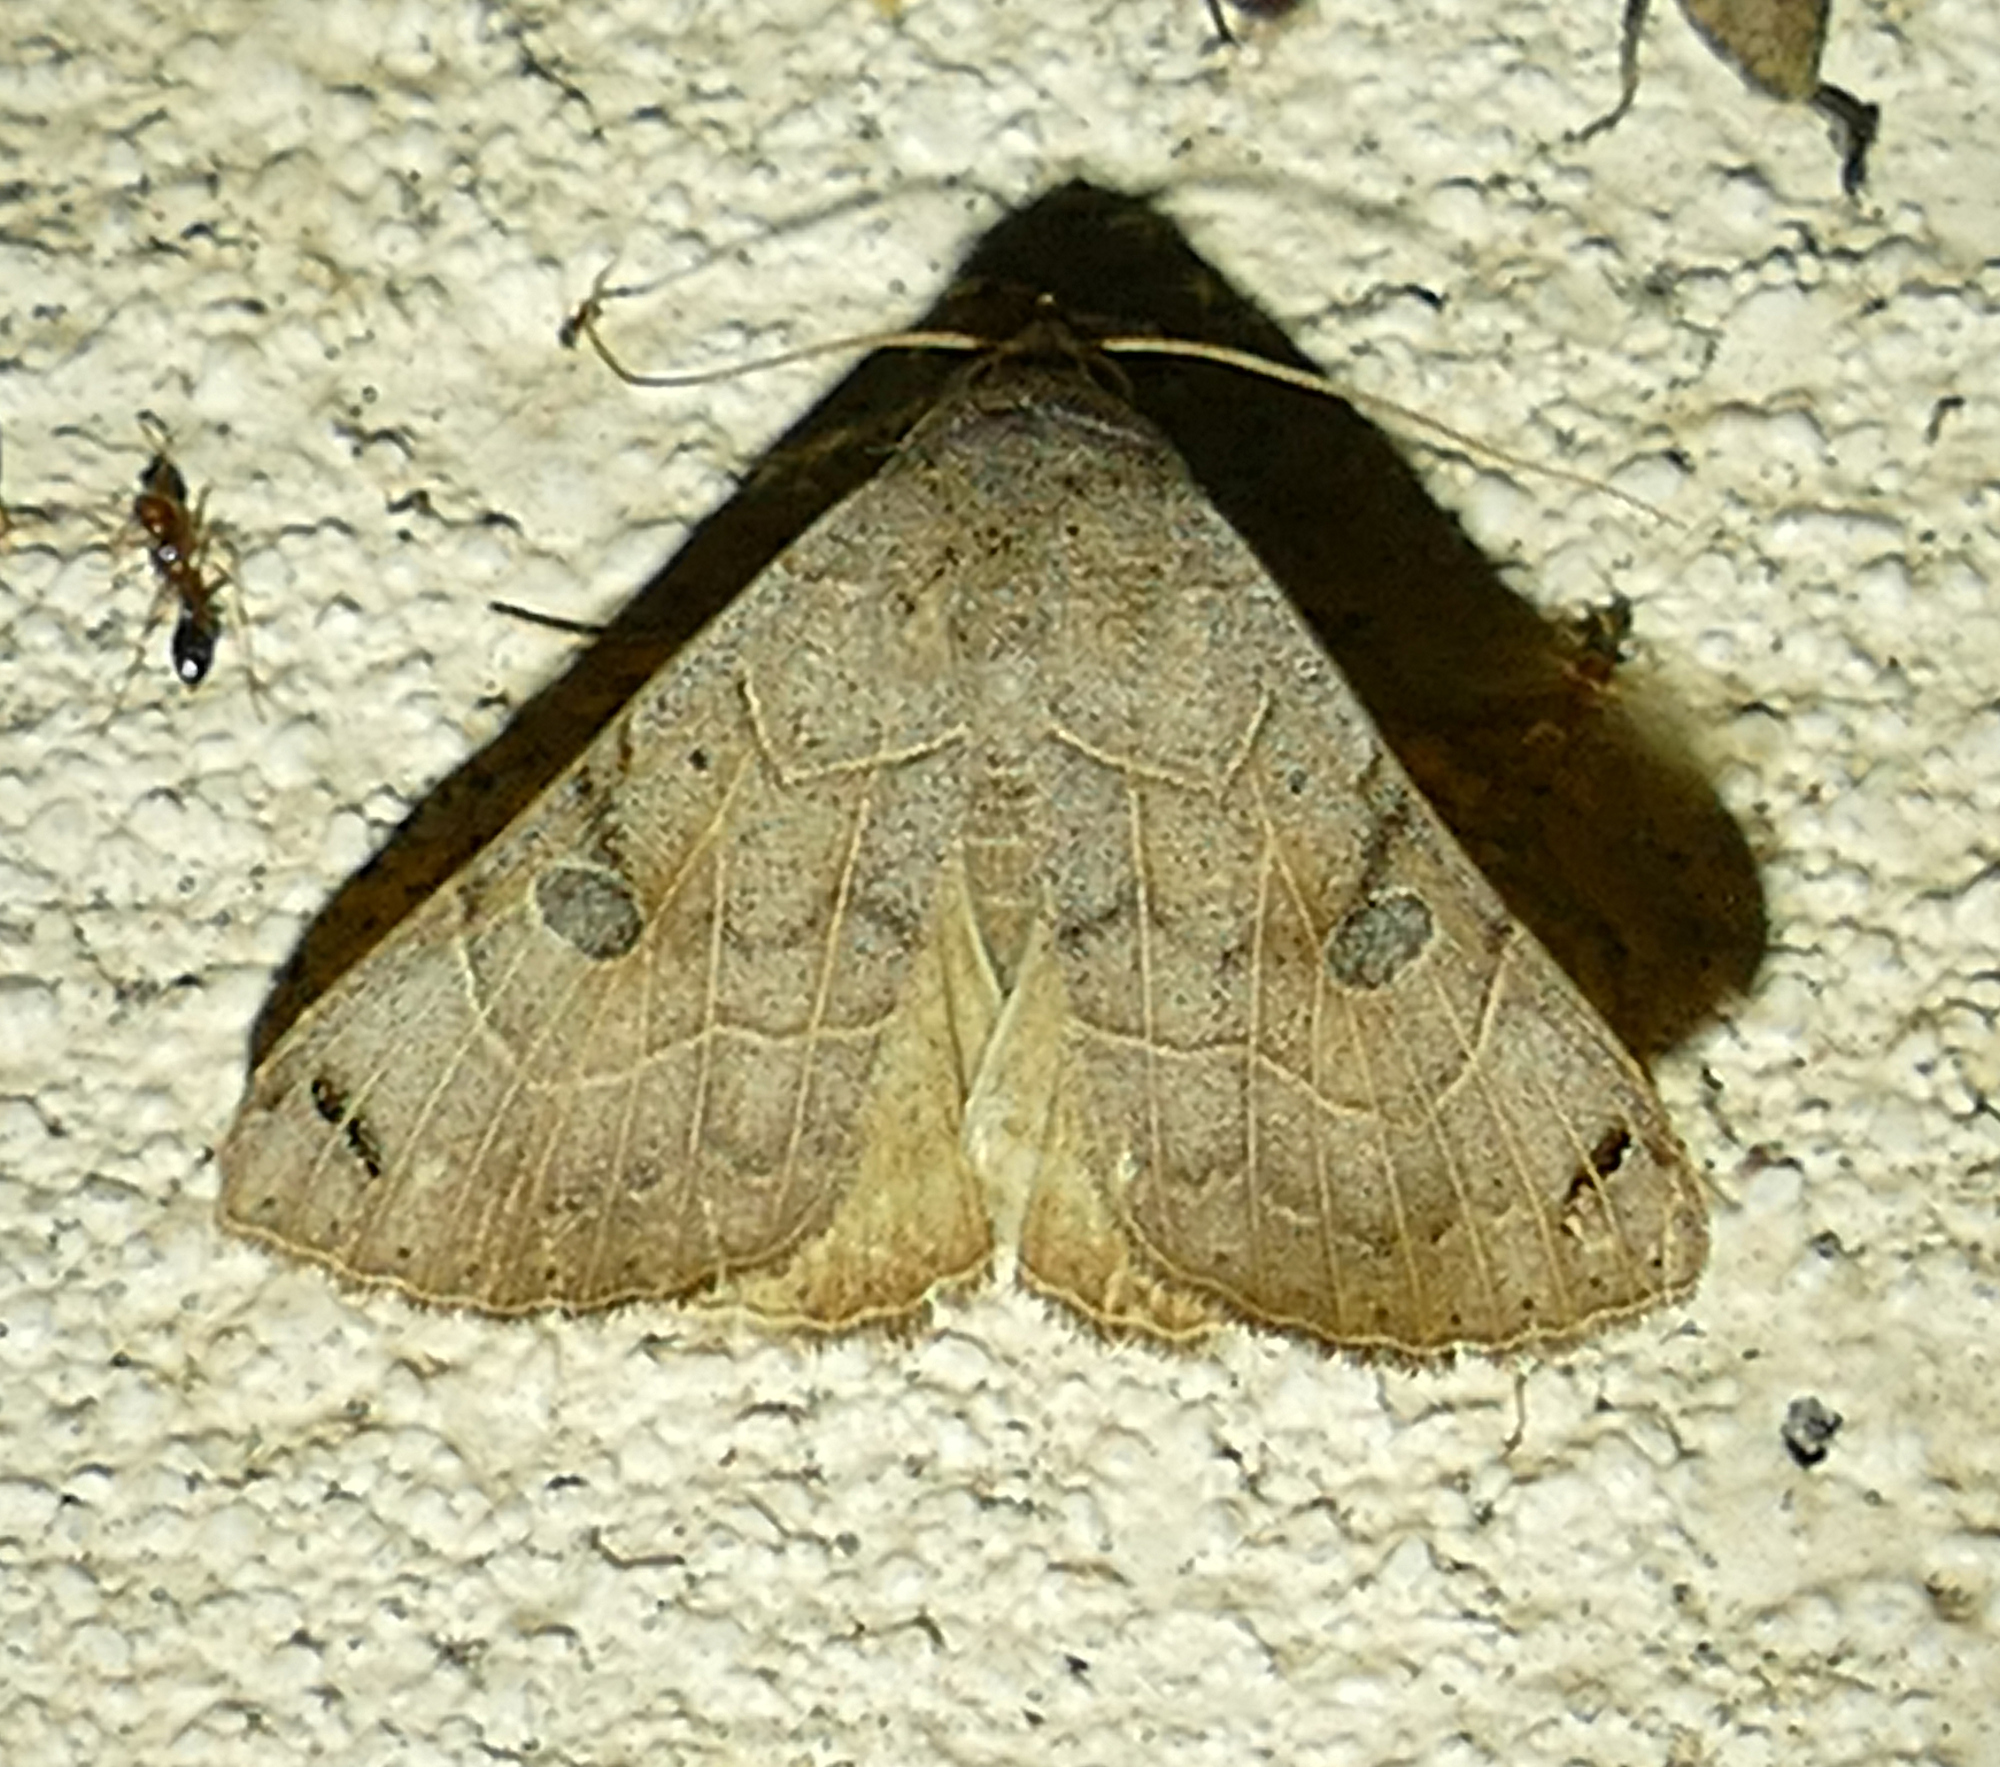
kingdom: Animalia
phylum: Arthropoda
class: Insecta
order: Lepidoptera
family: Erebidae
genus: Isogona
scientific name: Isogona scindens
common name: Owlet moth
